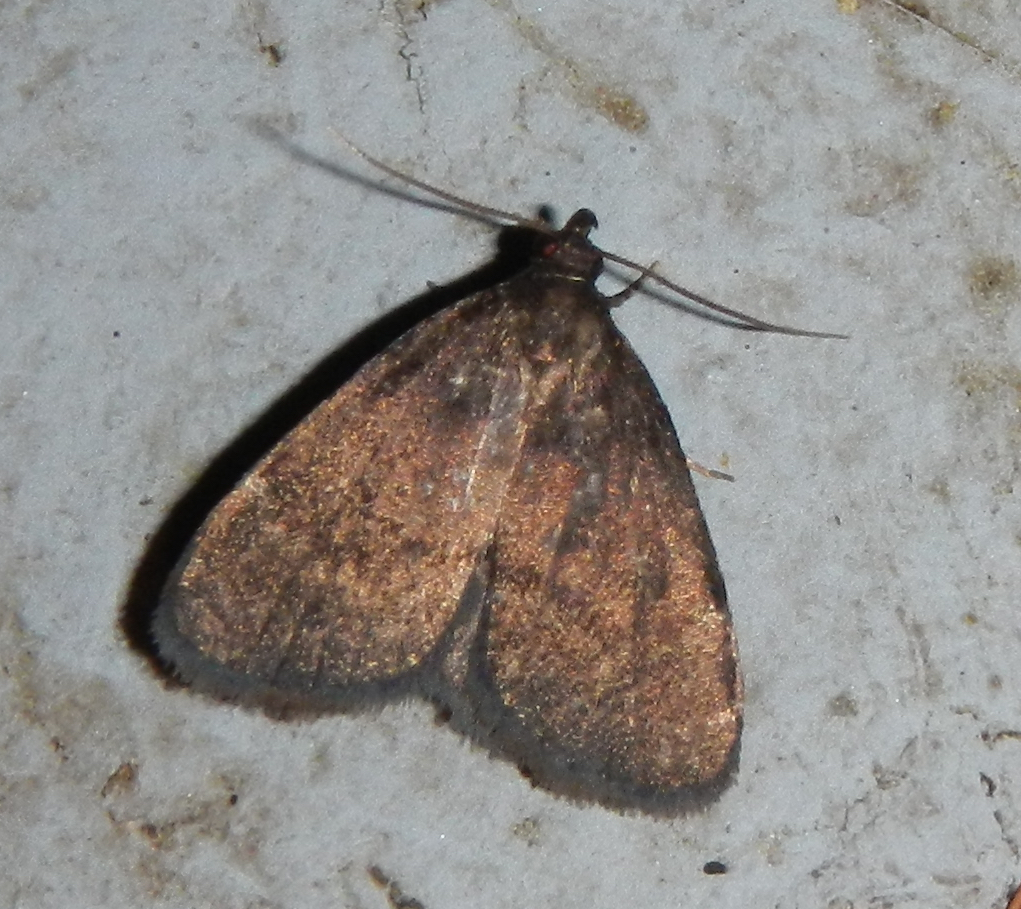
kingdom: Animalia
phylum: Arthropoda
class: Insecta
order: Lepidoptera
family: Erebidae
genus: Idia
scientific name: Idia rotundalis
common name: Rotund idia moth
